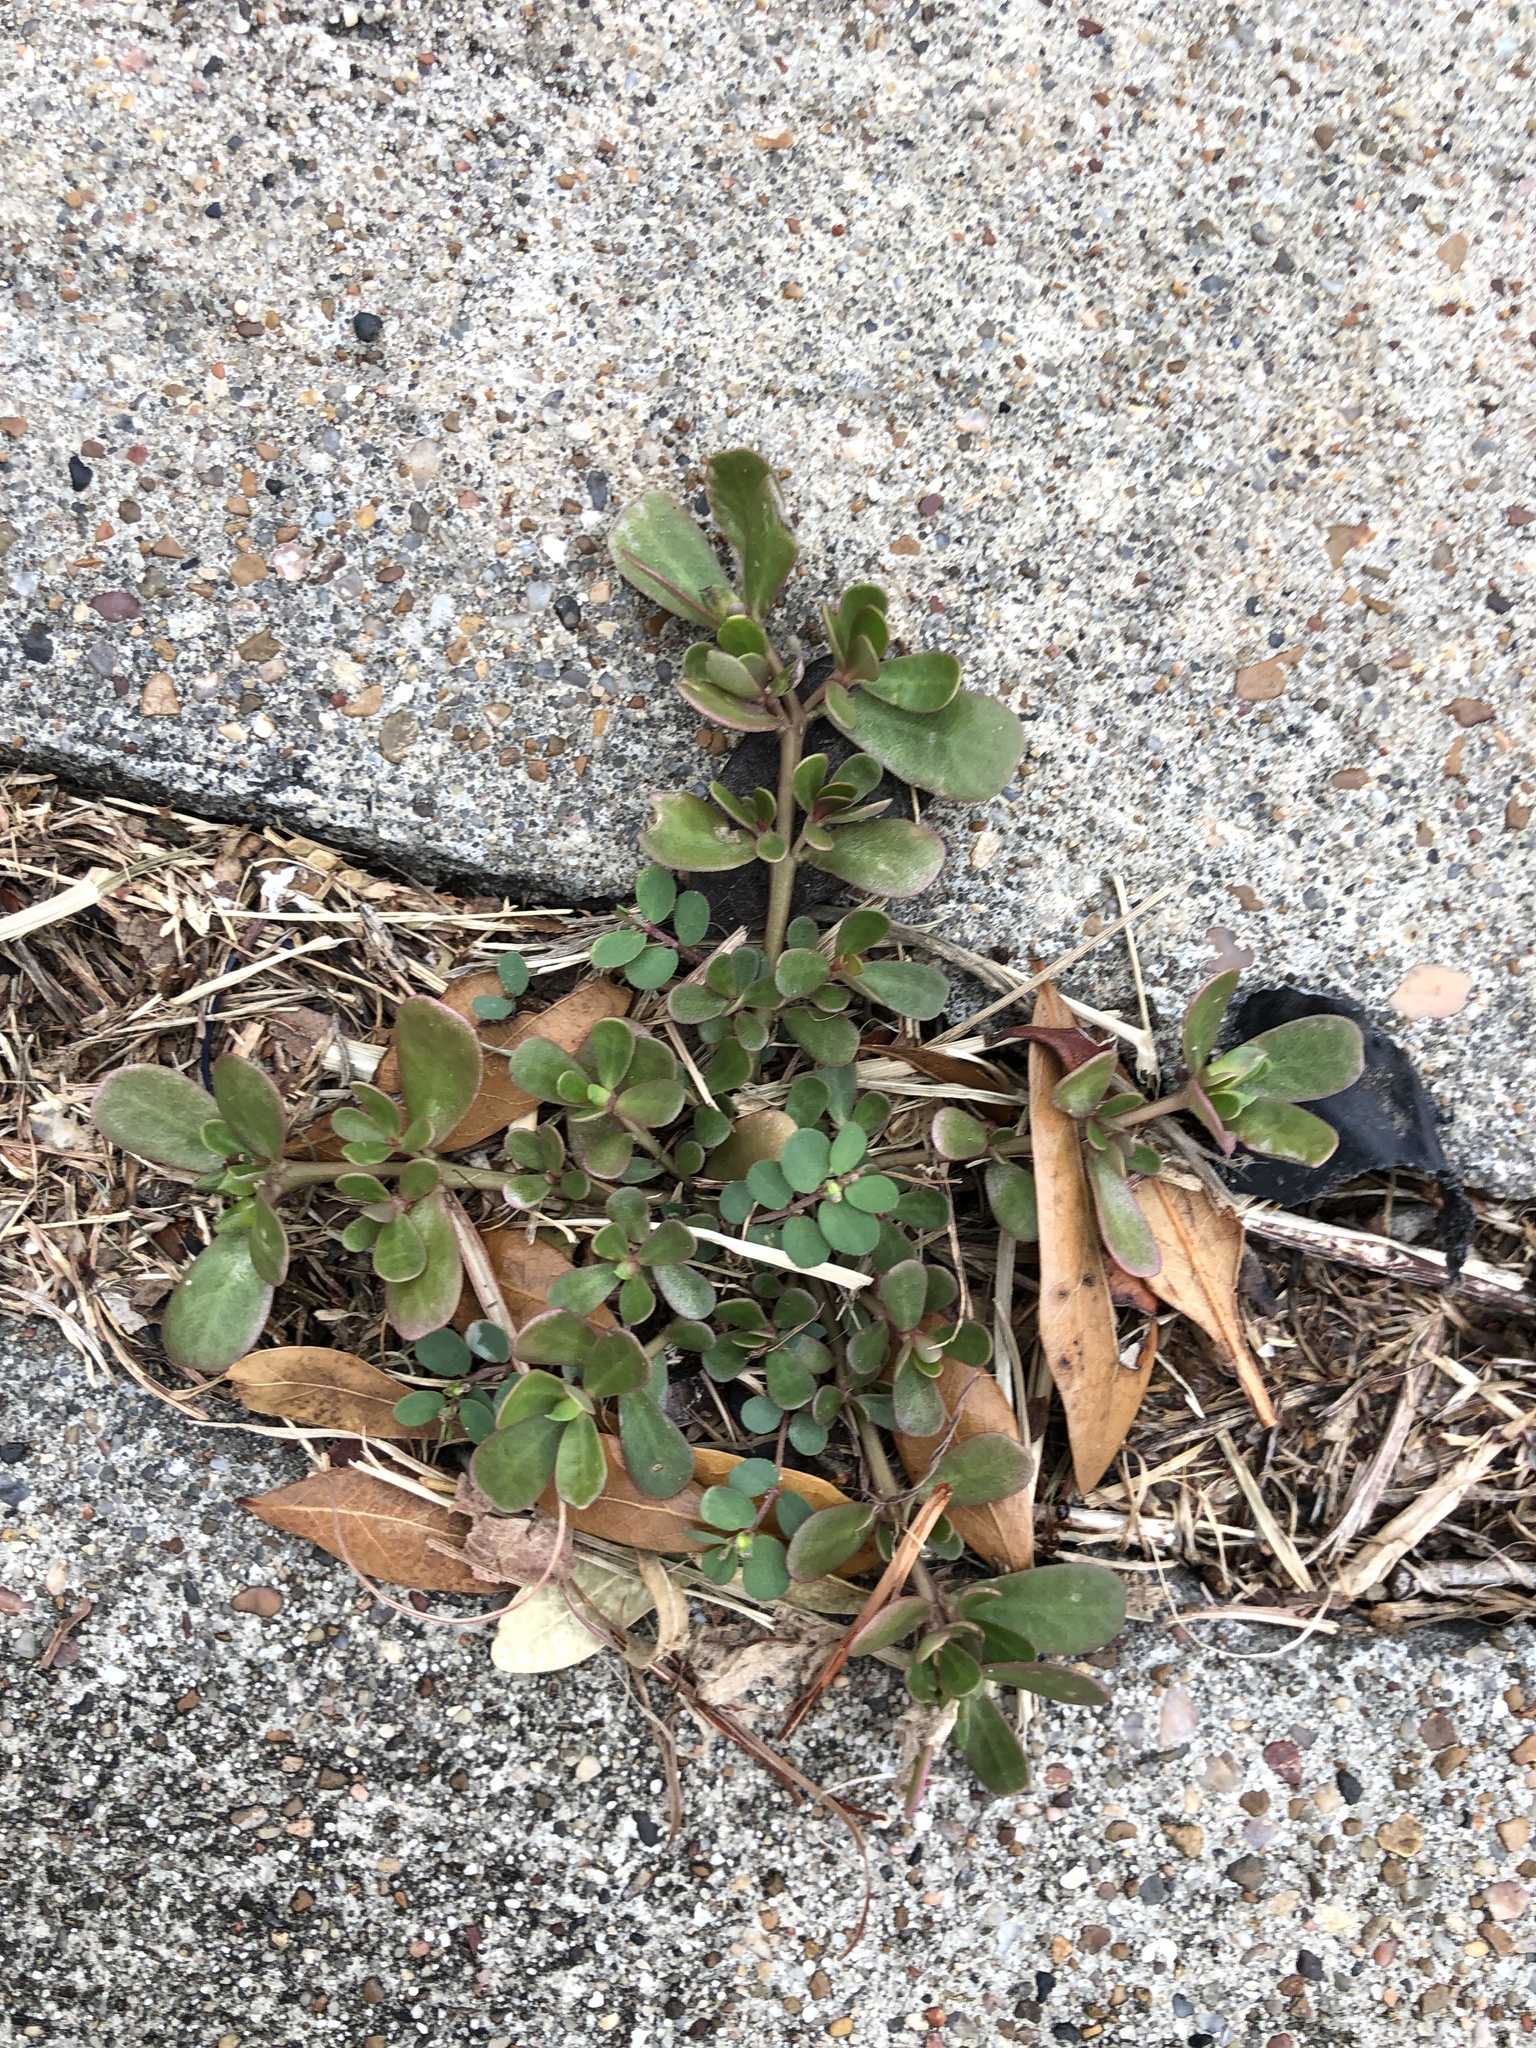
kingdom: Plantae
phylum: Tracheophyta
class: Magnoliopsida
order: Caryophyllales
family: Portulacaceae
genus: Portulaca
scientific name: Portulaca oleracea
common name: Common purslane
